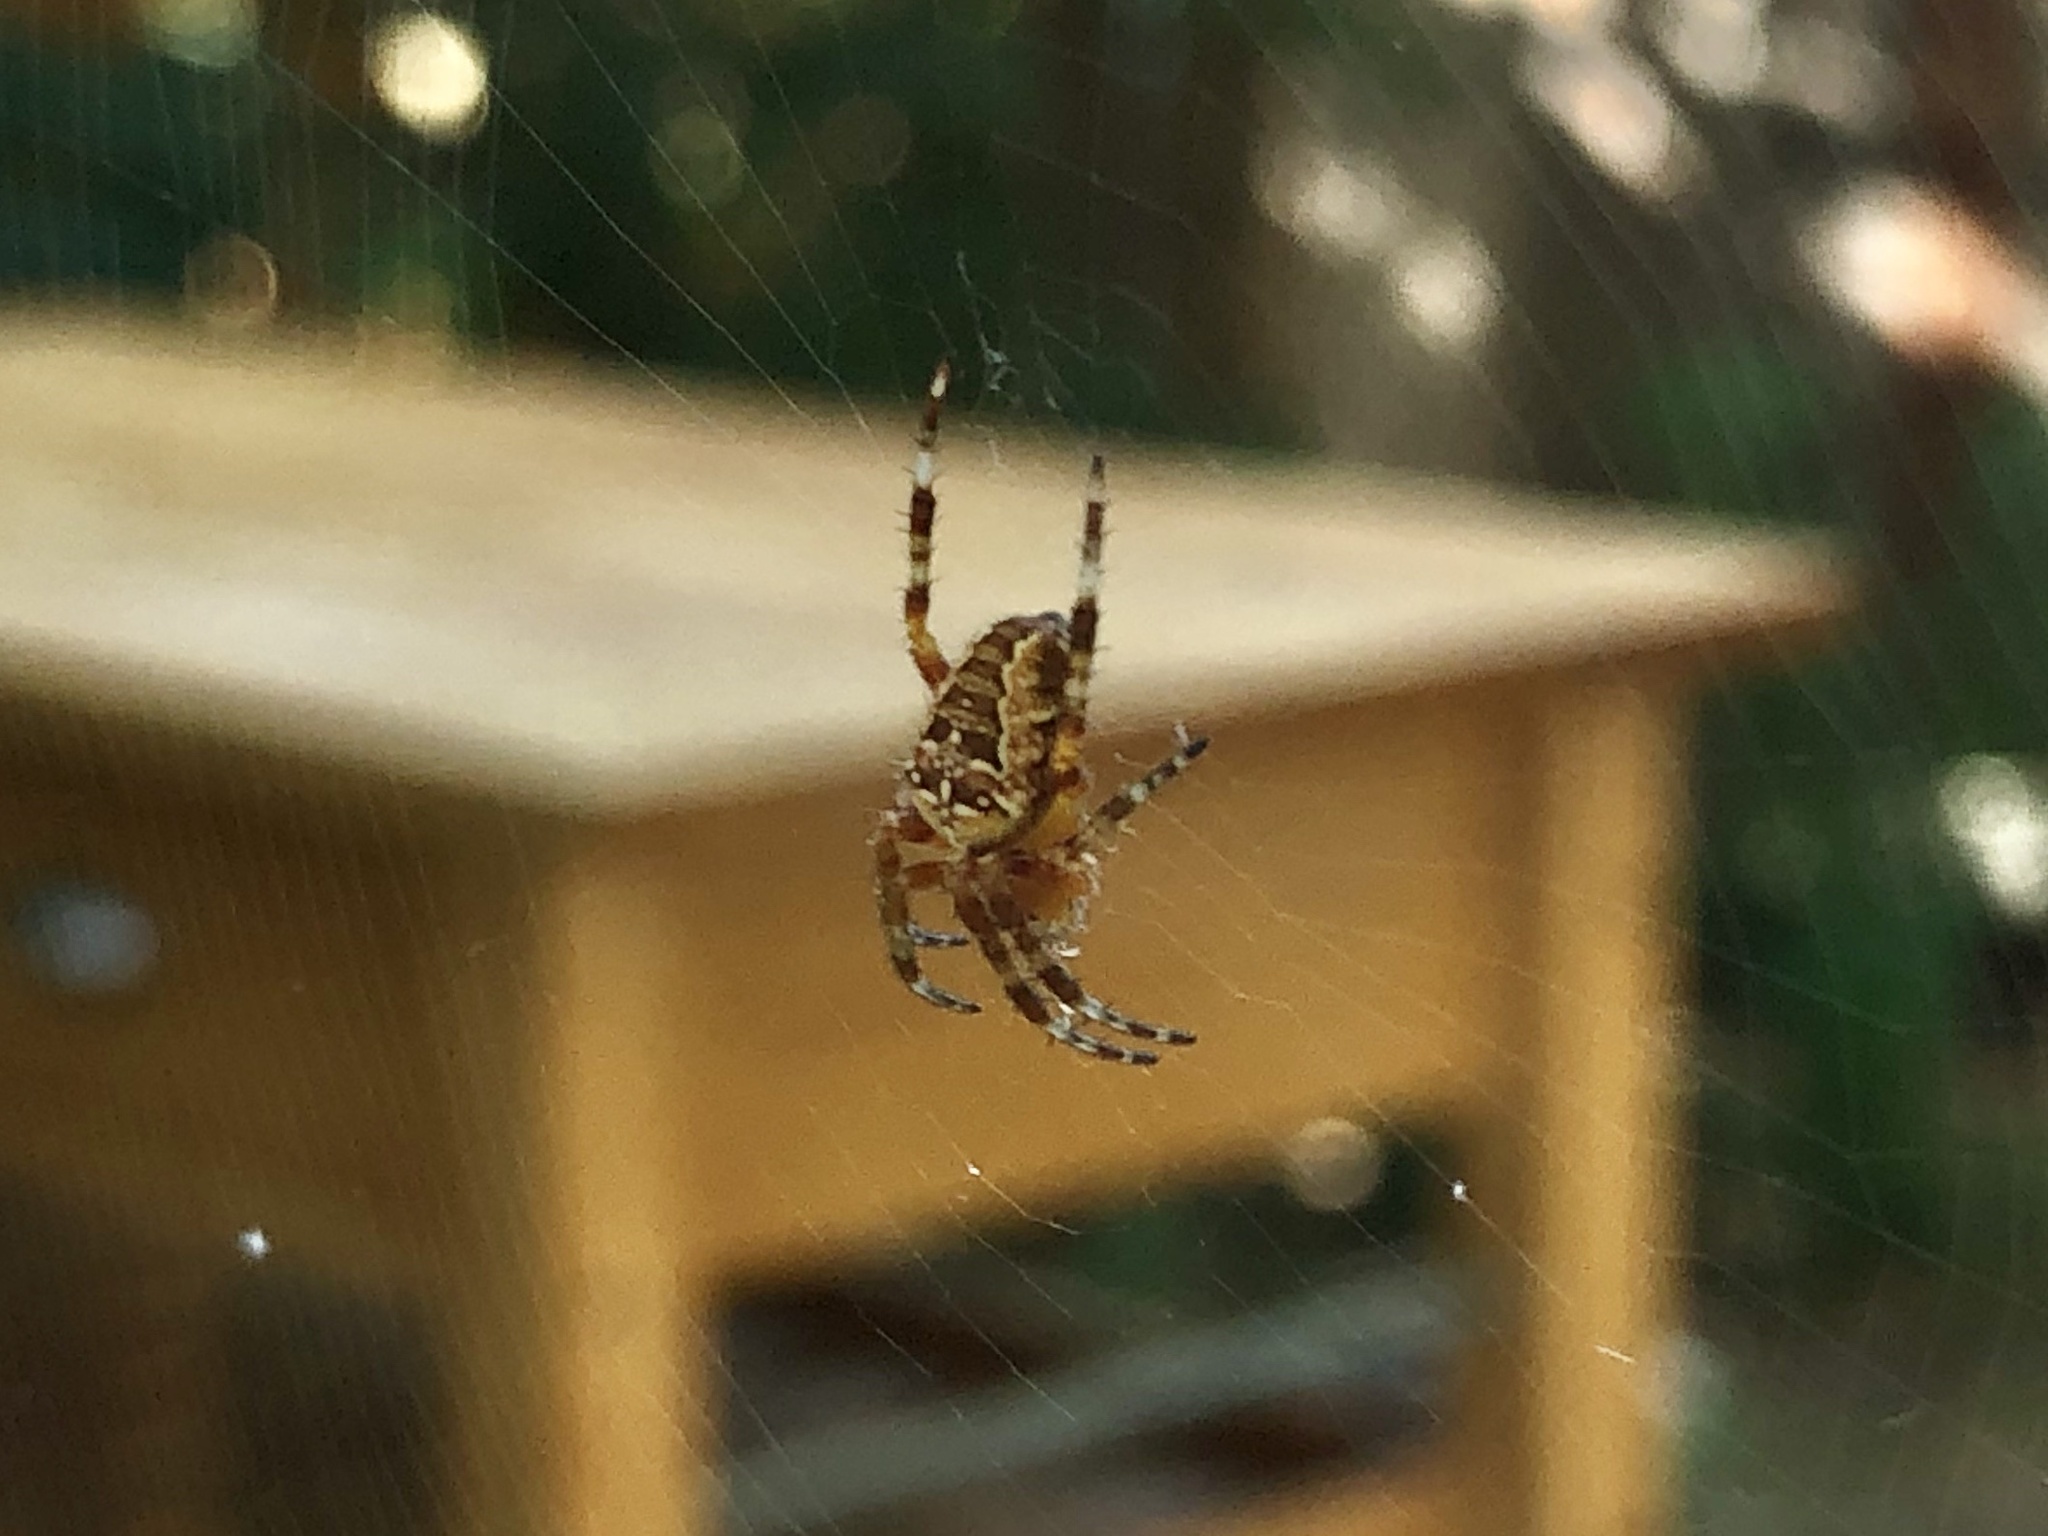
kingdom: Animalia
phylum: Arthropoda
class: Arachnida
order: Araneae
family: Araneidae
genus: Araneus
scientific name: Araneus diadematus
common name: Cross orbweaver
